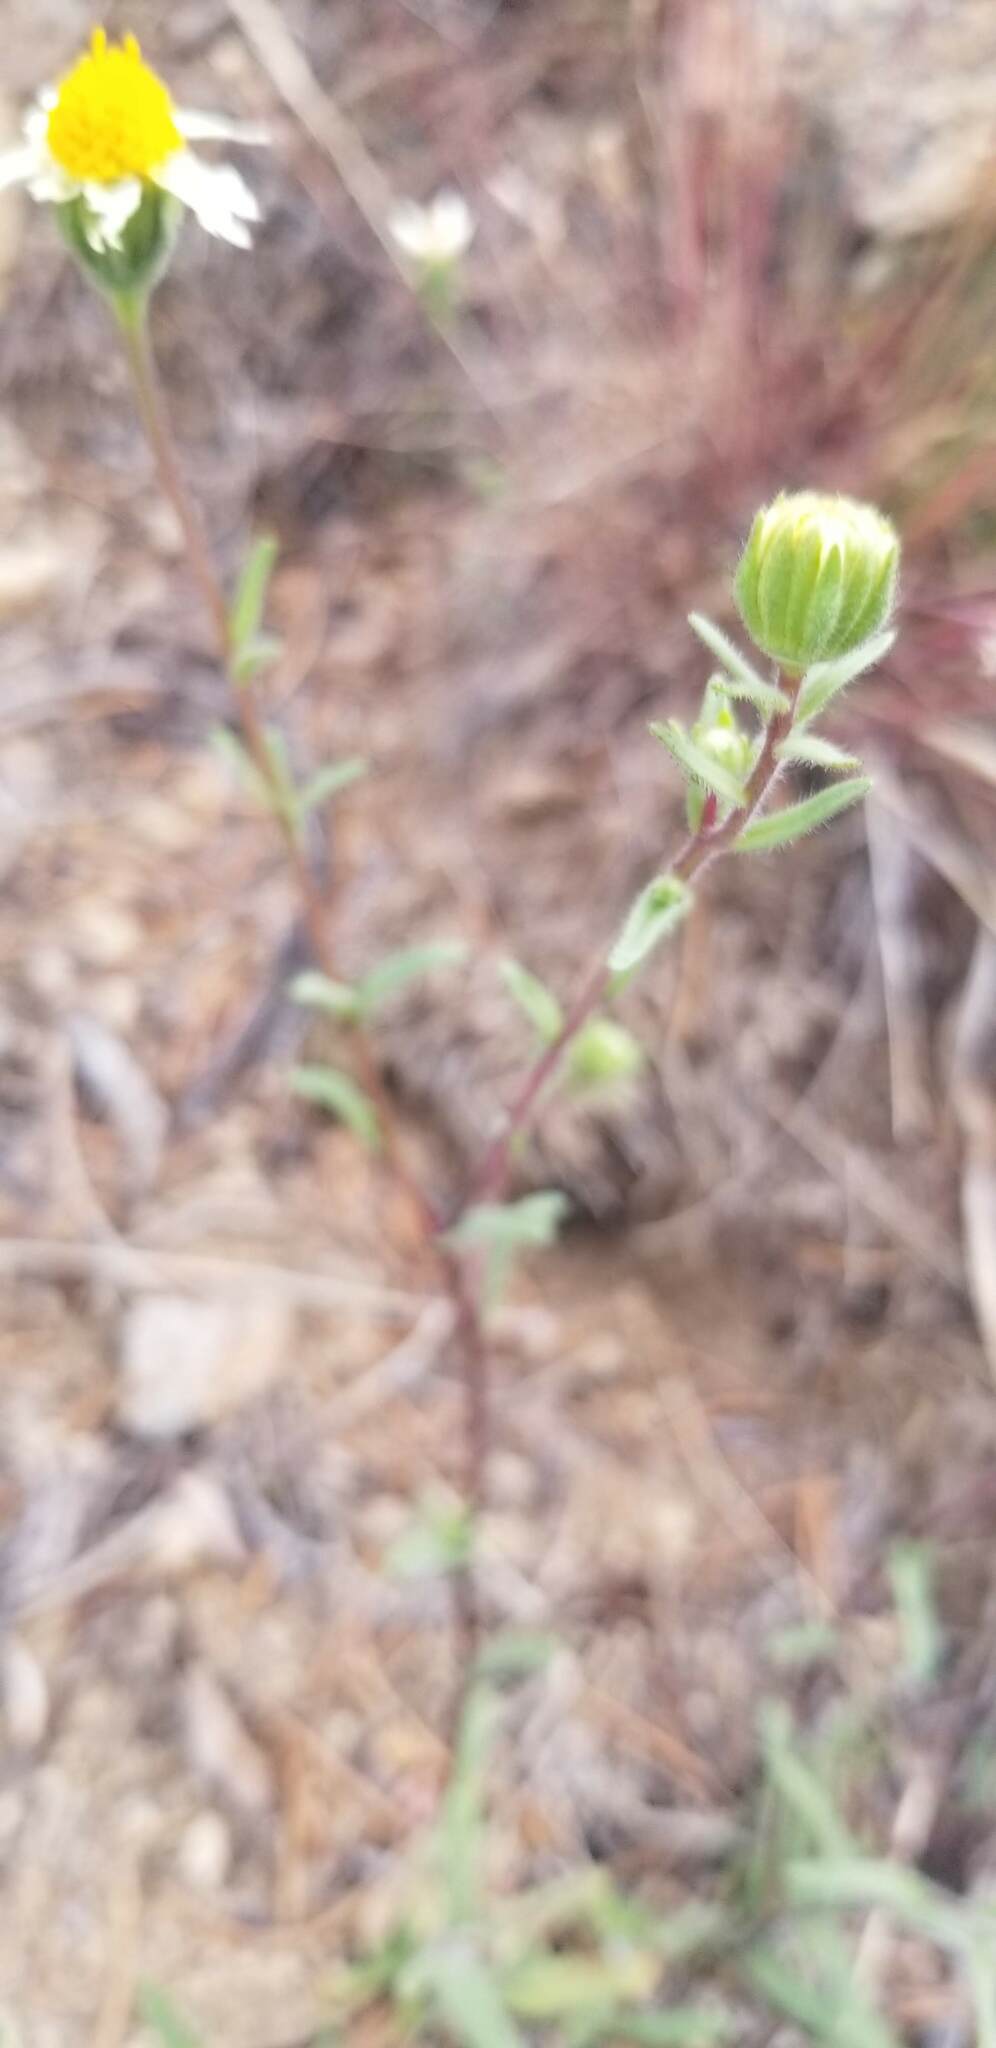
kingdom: Plantae
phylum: Tracheophyta
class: Magnoliopsida
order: Asterales
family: Asteraceae
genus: Layia
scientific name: Layia glandulosa
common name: White layia
